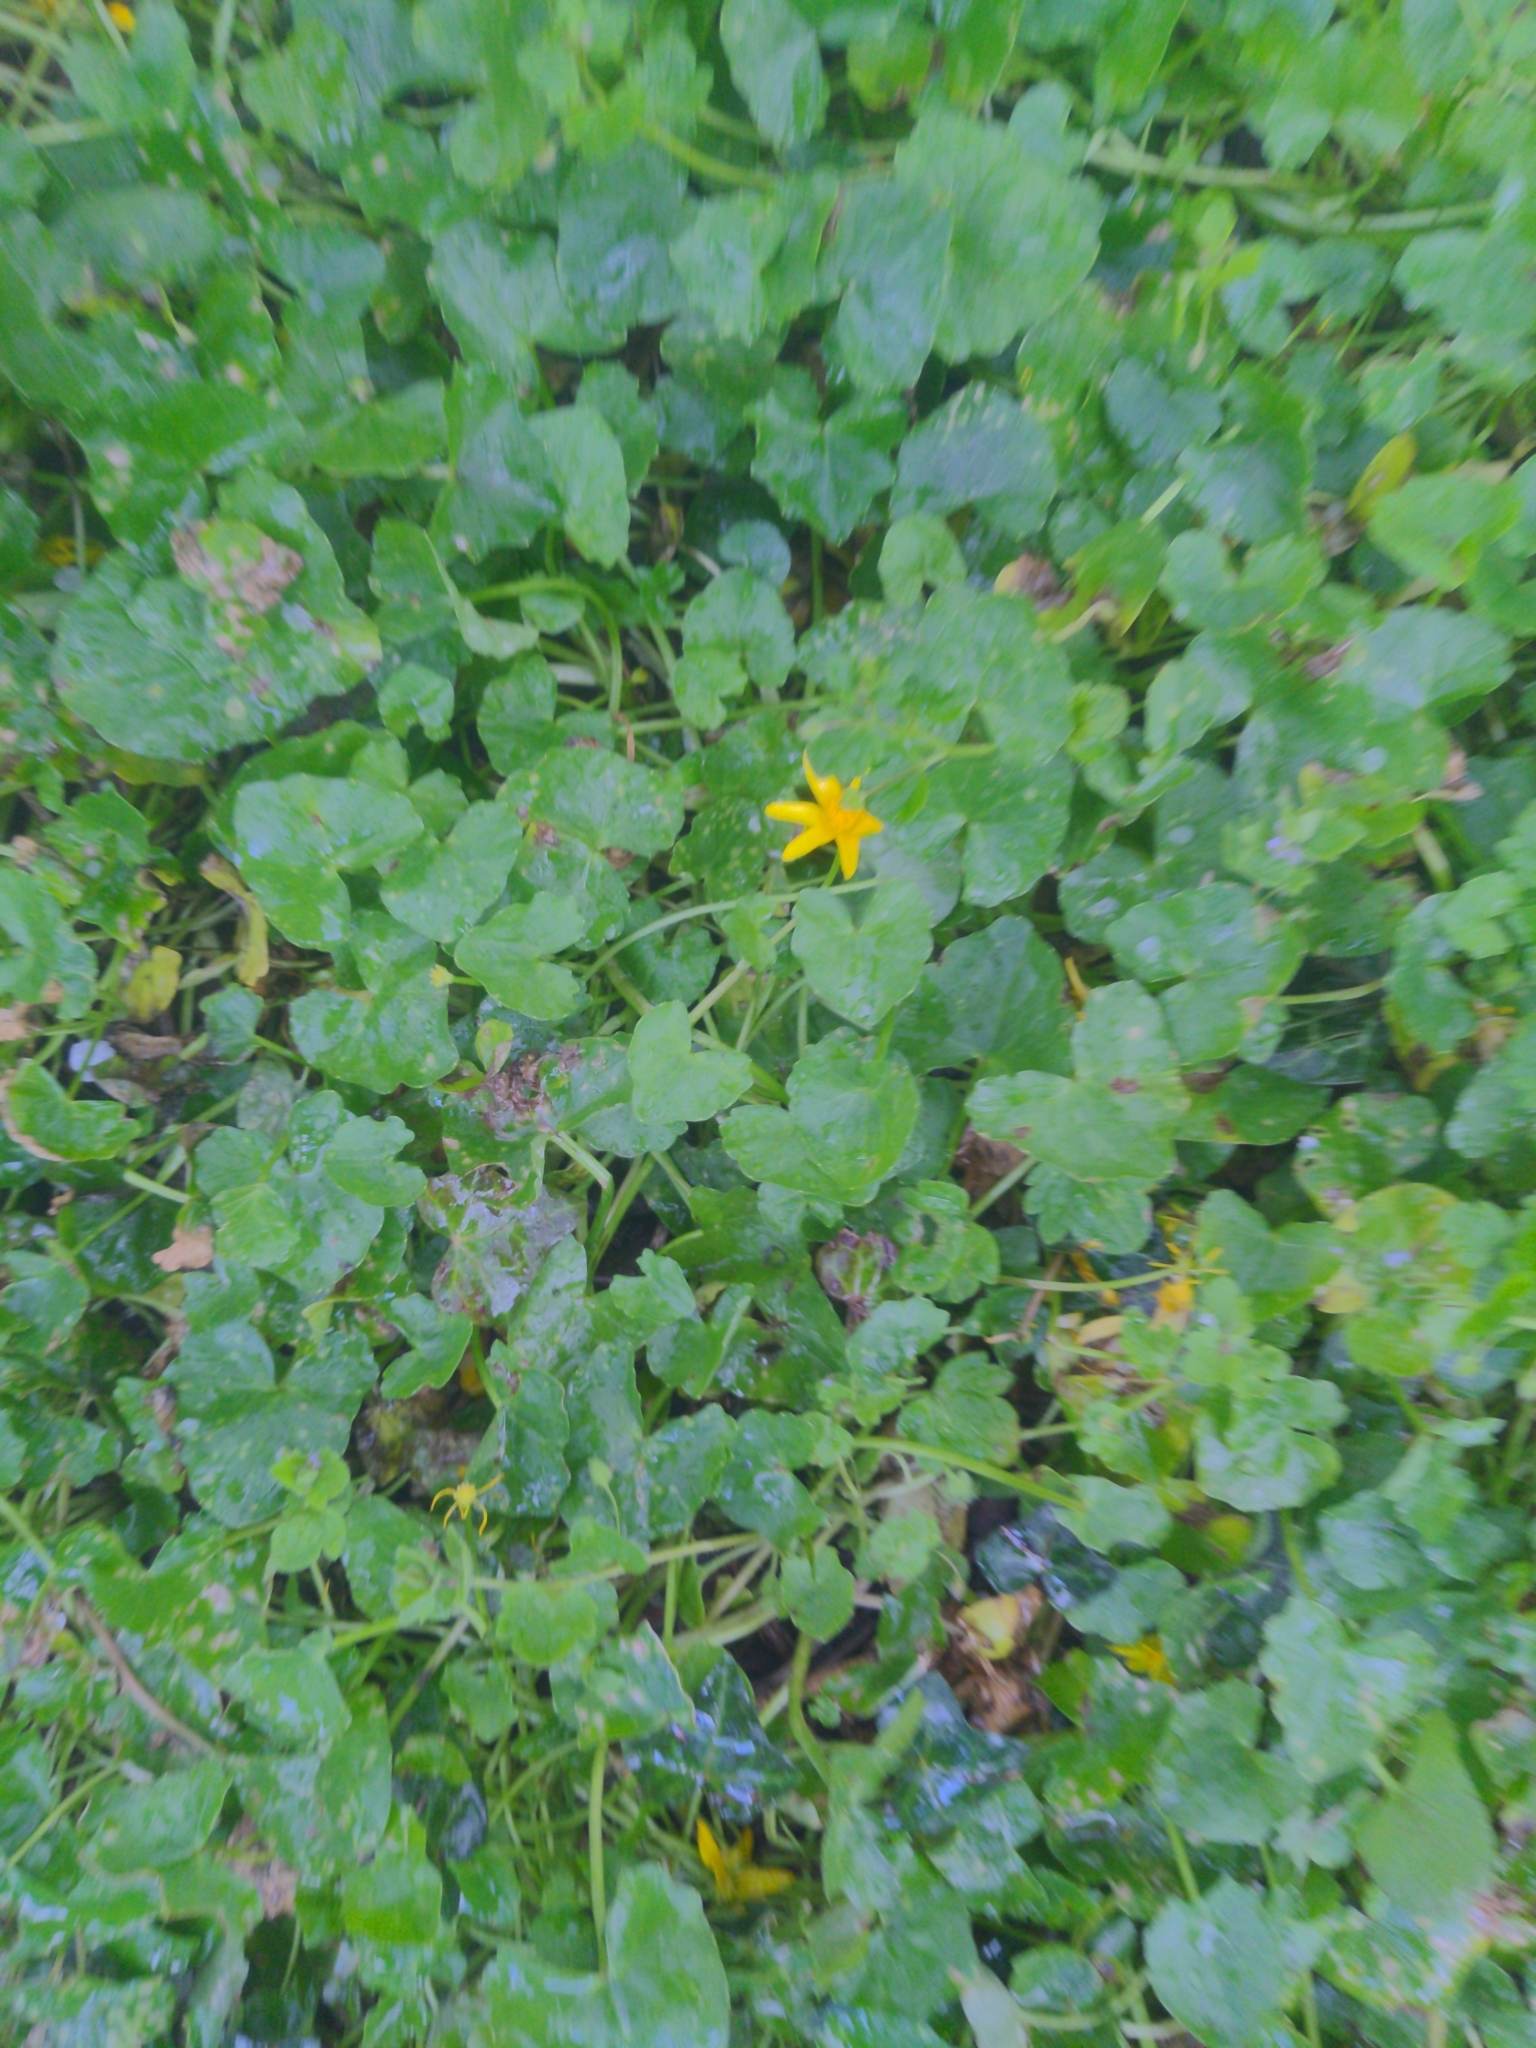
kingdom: Plantae
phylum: Tracheophyta
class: Magnoliopsida
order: Ranunculales
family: Ranunculaceae
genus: Ficaria
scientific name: Ficaria verna
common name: Lesser celandine
